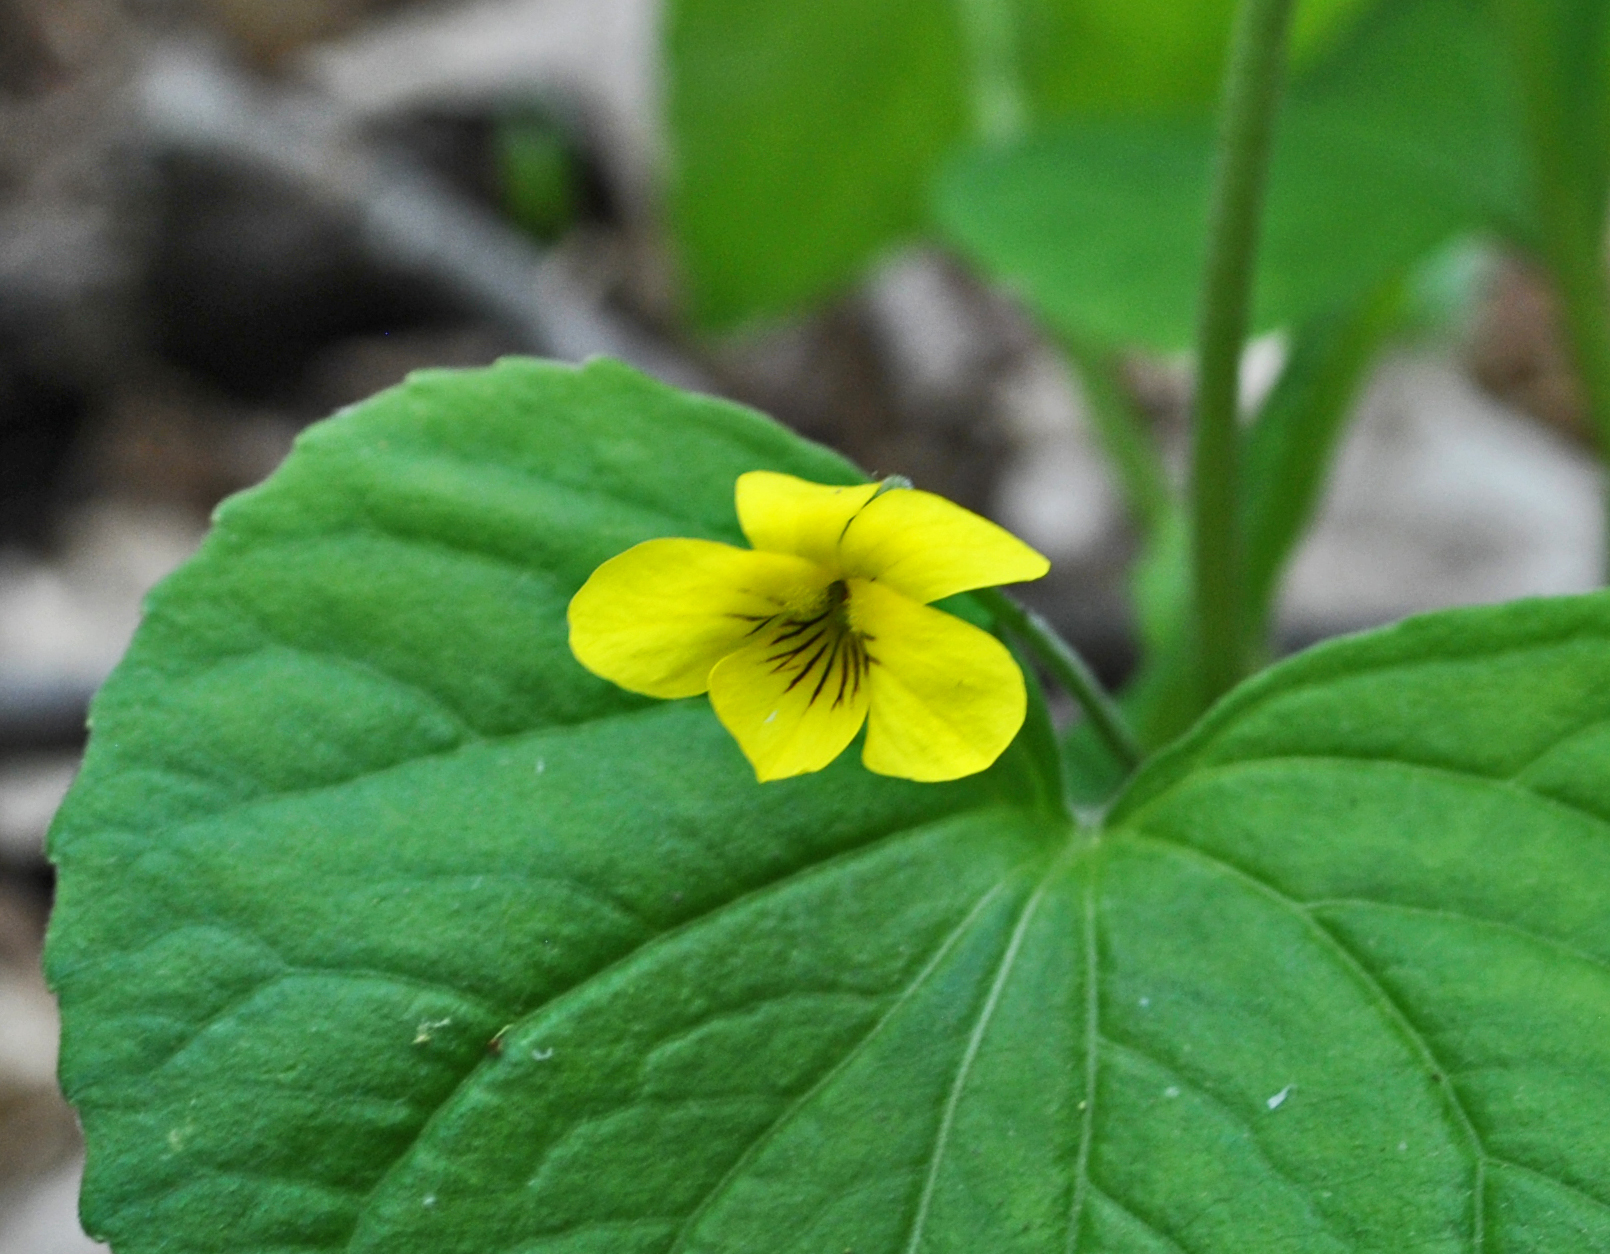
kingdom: Plantae
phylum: Tracheophyta
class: Magnoliopsida
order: Malpighiales
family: Violaceae
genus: Viola
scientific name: Viola eriocarpa
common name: Smooth yellow violet
